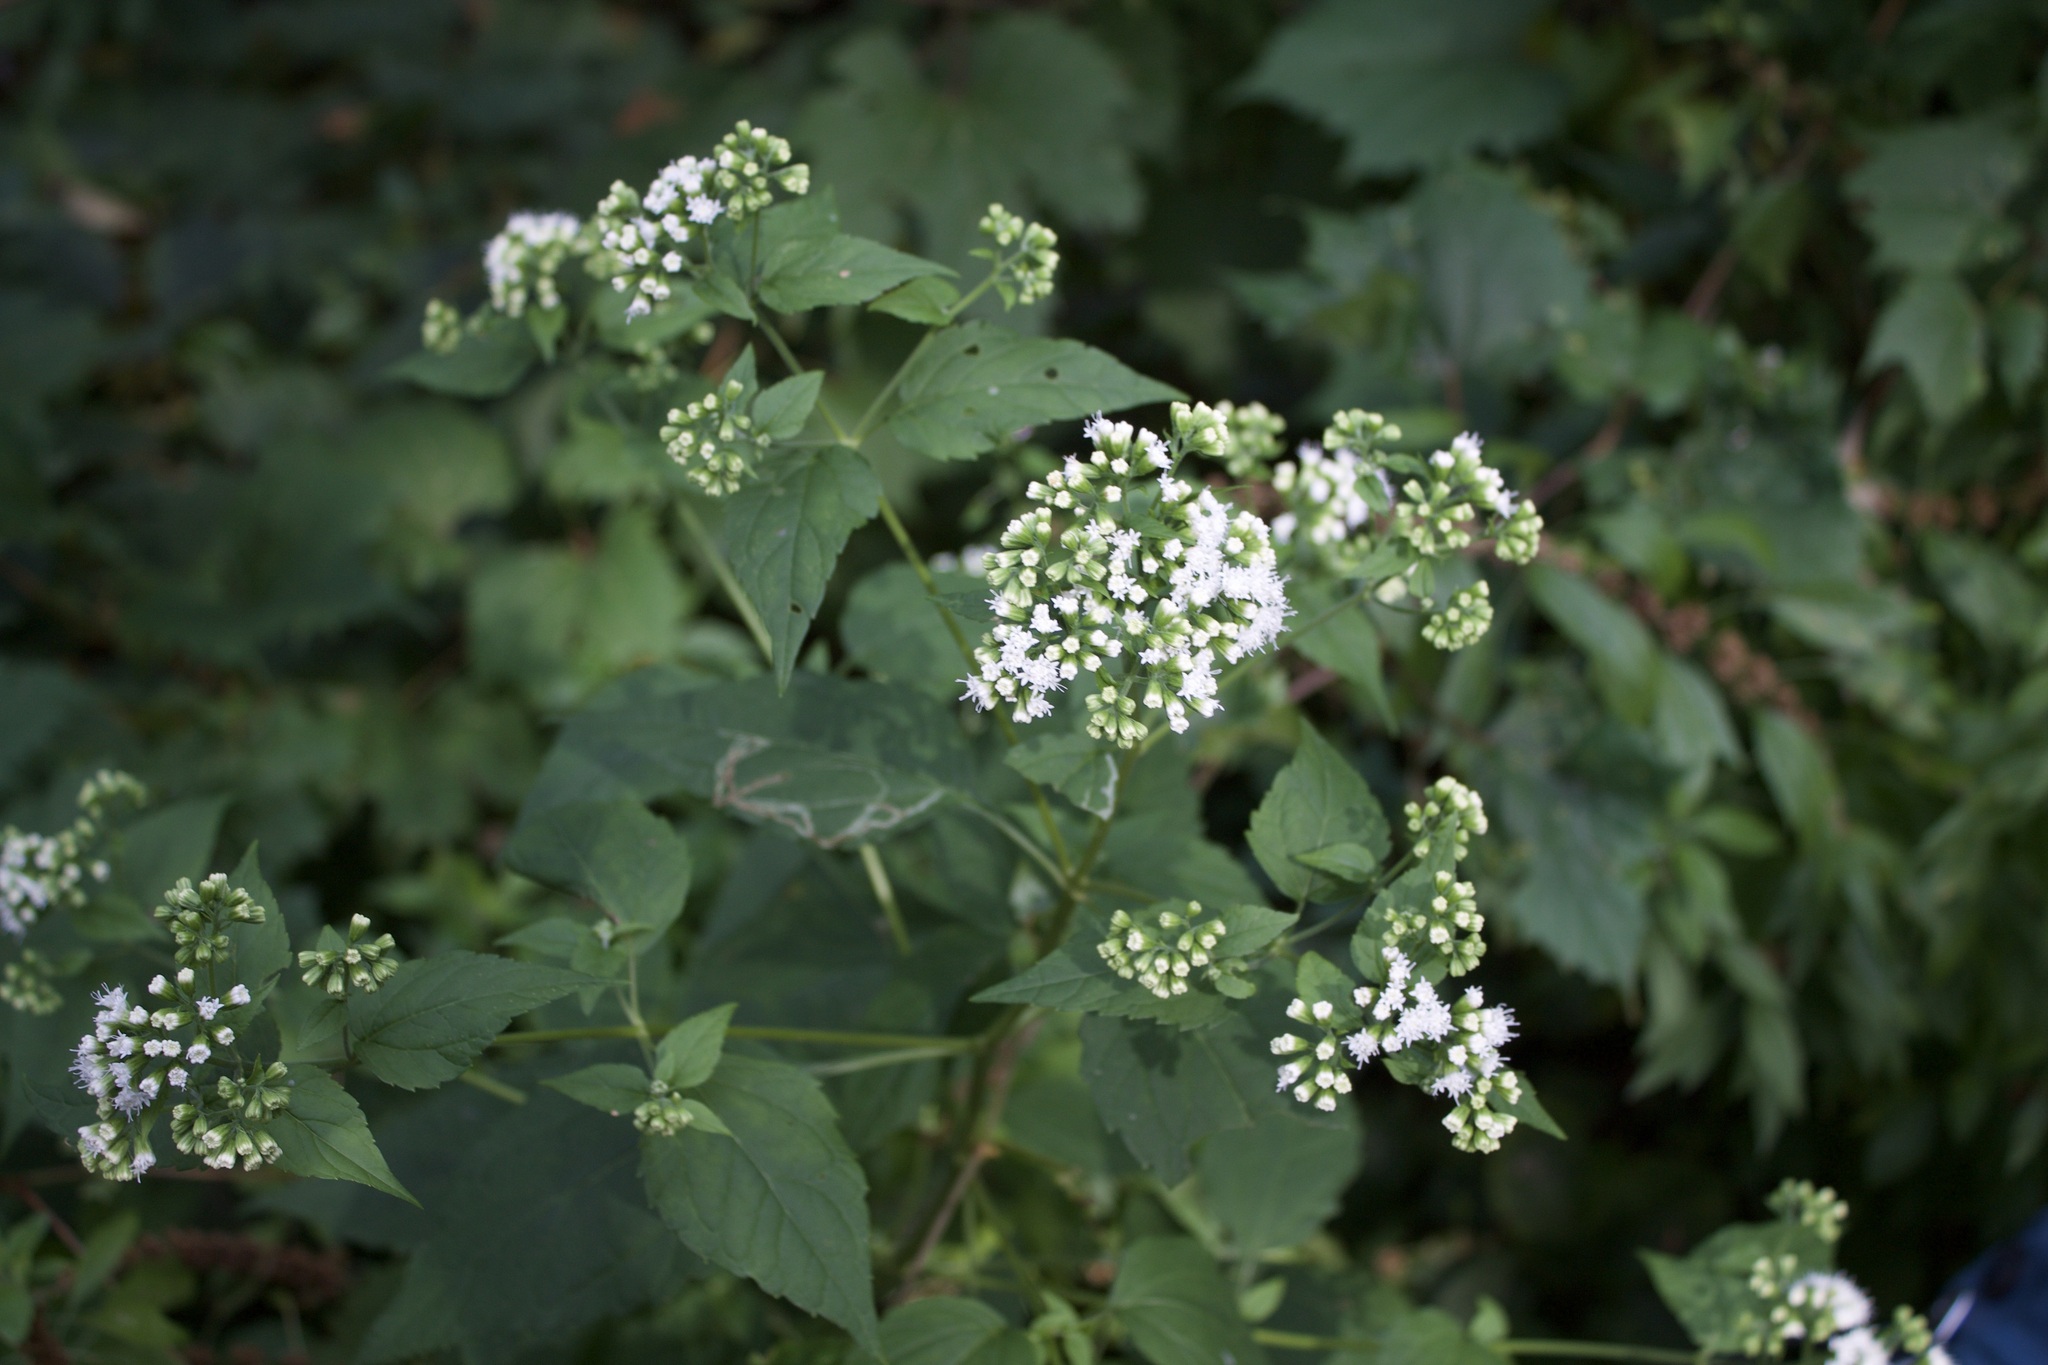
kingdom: Plantae
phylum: Tracheophyta
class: Magnoliopsida
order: Asterales
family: Asteraceae
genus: Ageratina
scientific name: Ageratina altissima
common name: White snakeroot
